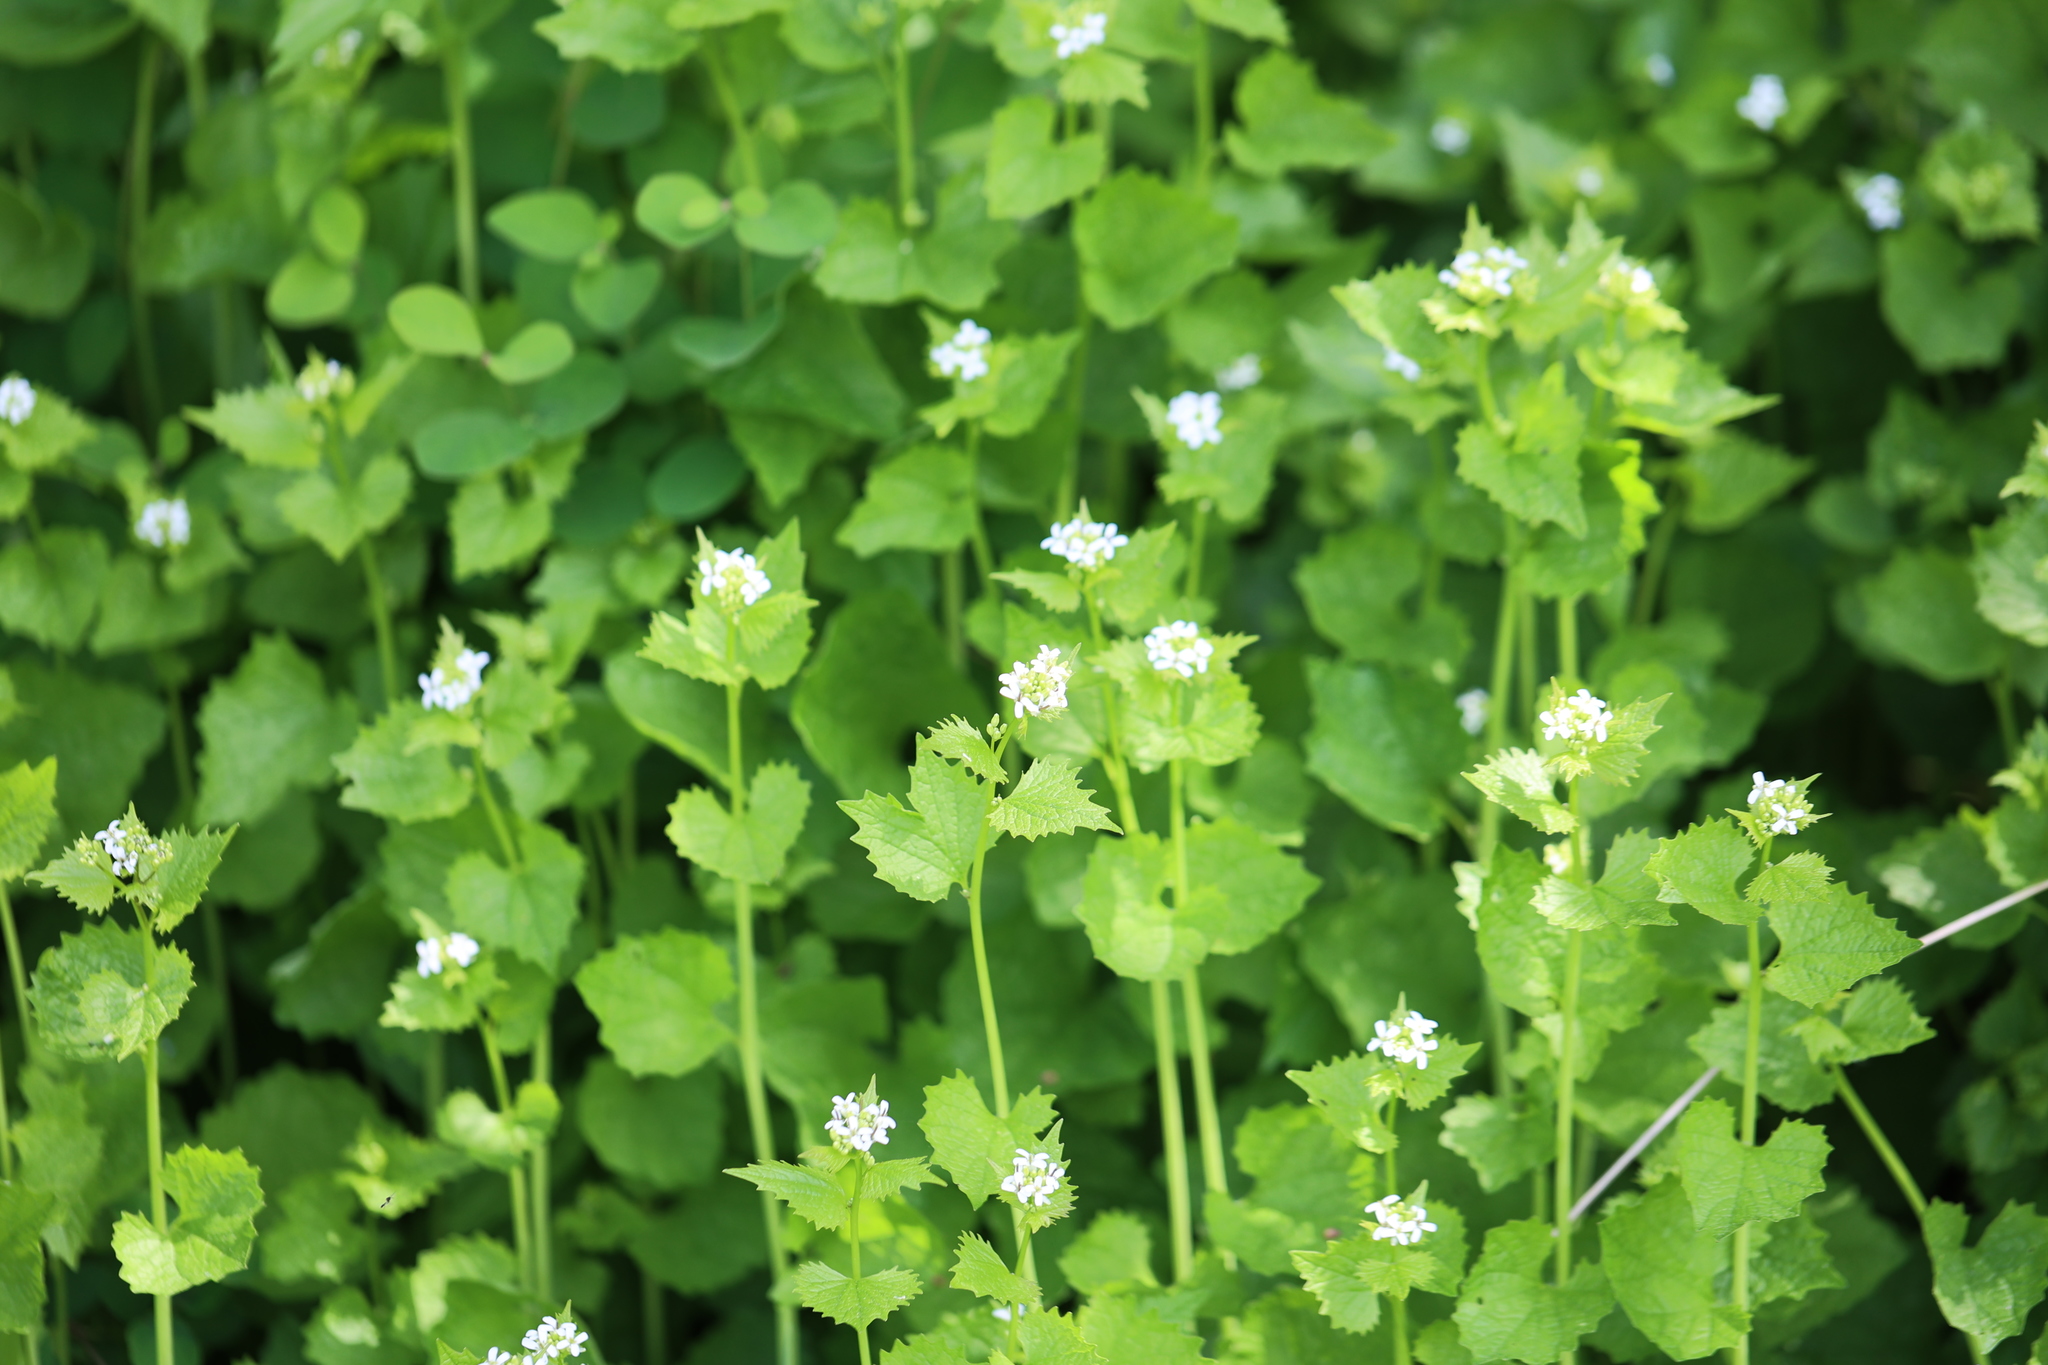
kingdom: Plantae
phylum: Tracheophyta
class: Magnoliopsida
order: Brassicales
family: Brassicaceae
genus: Alliaria
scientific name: Alliaria petiolata
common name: Garlic mustard
